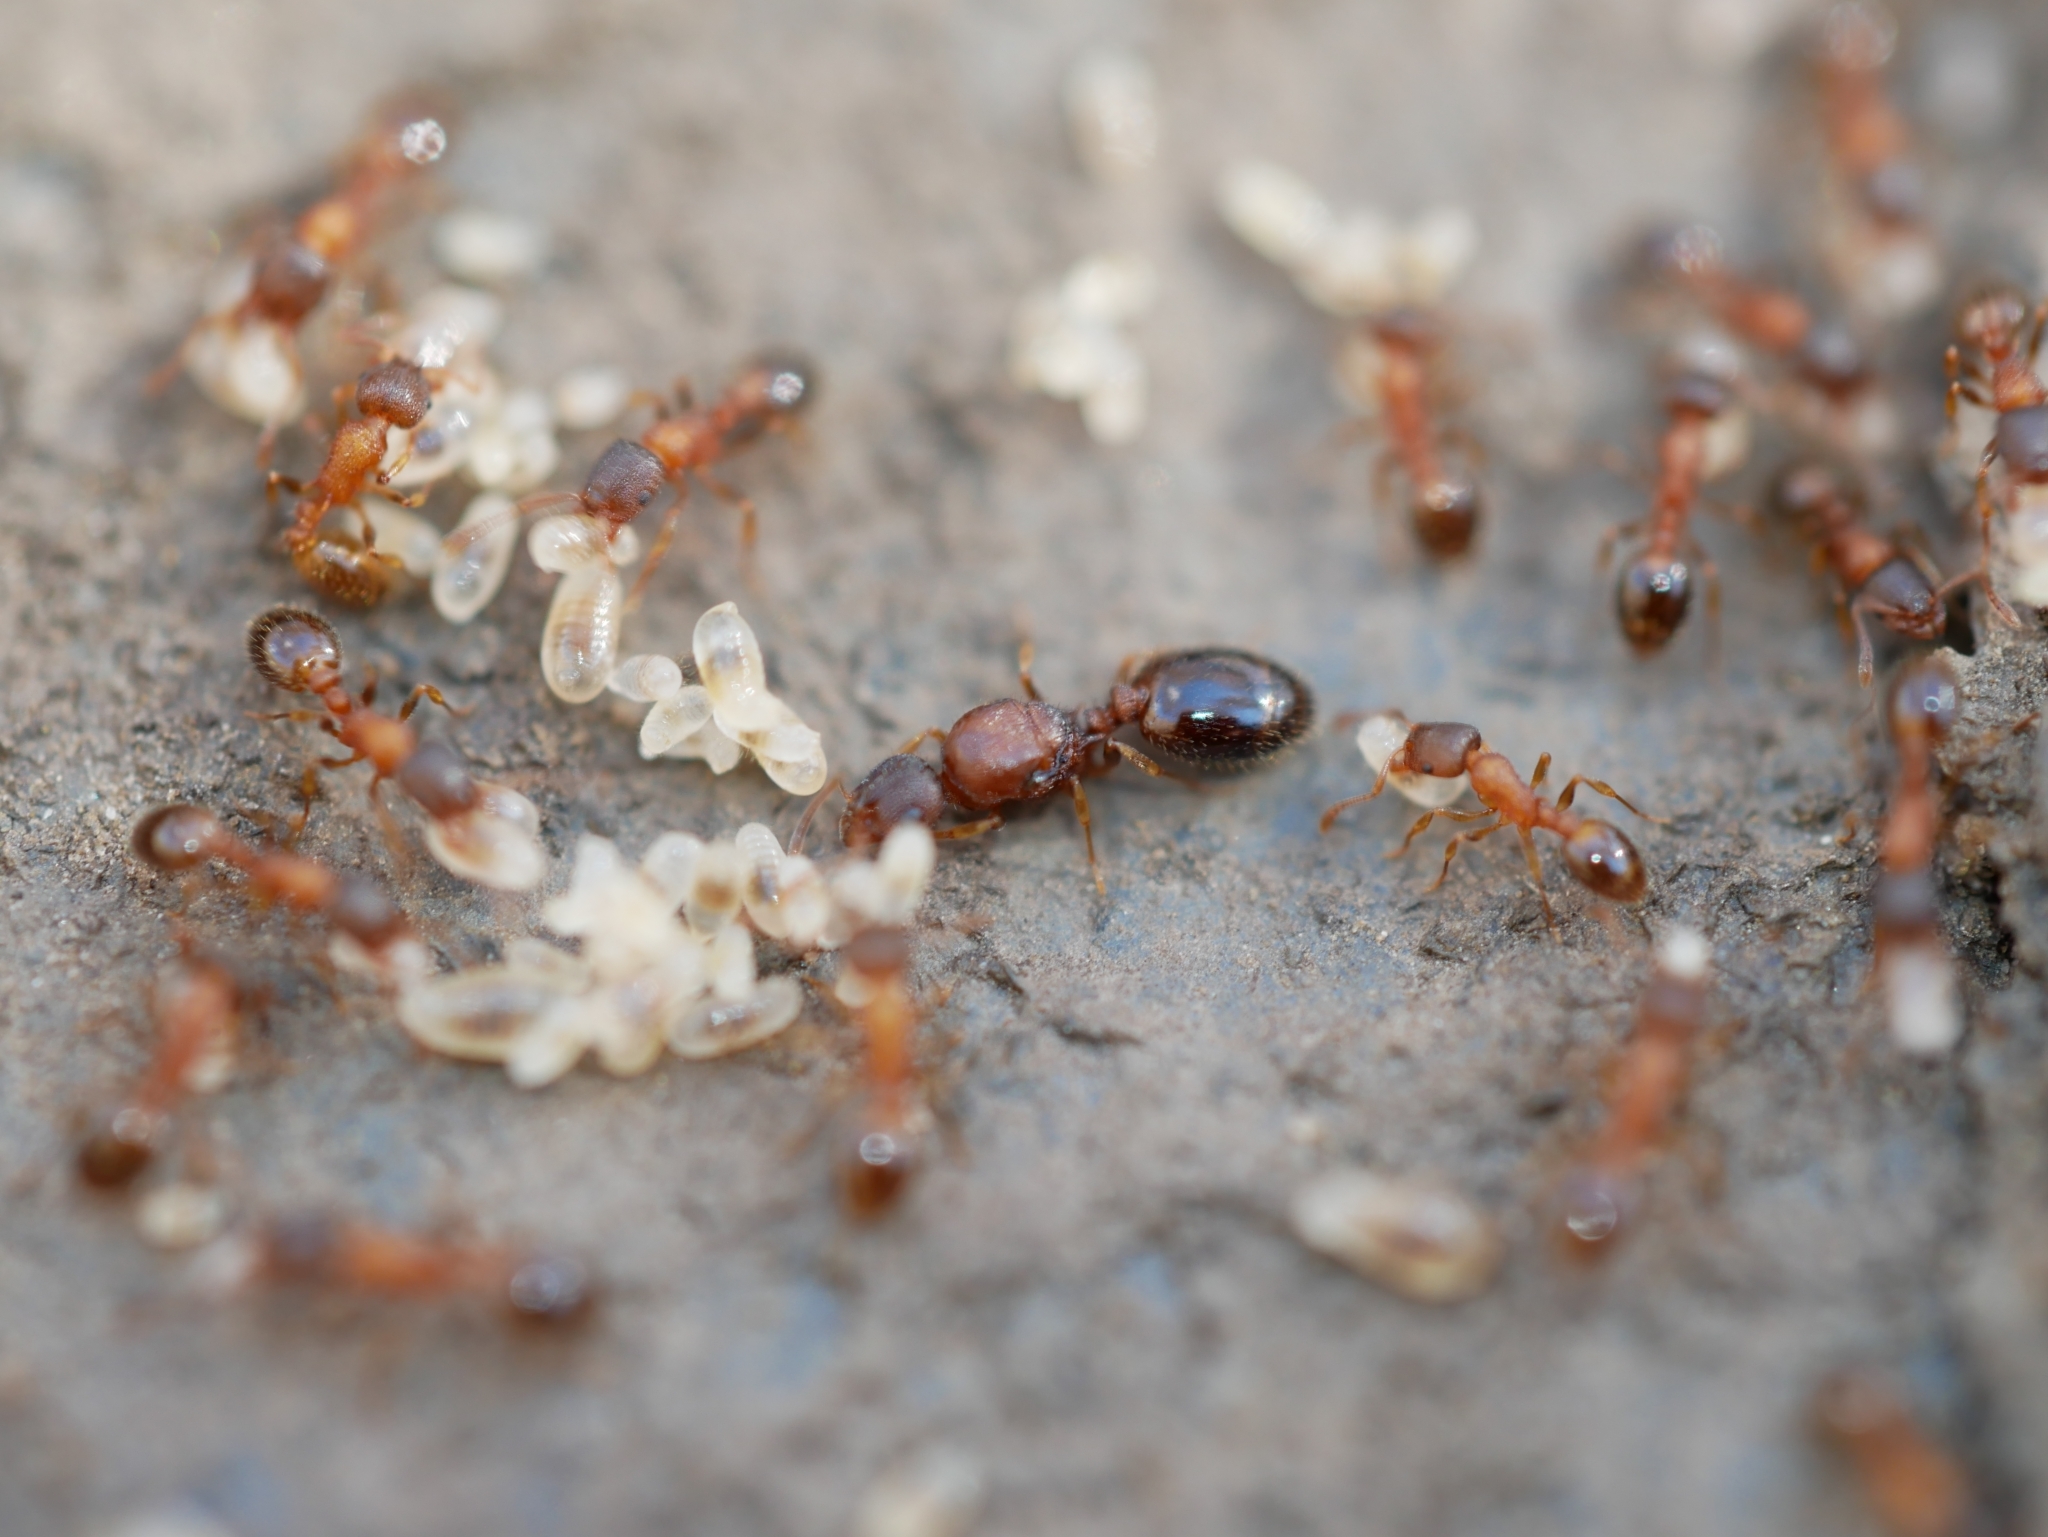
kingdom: Animalia
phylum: Arthropoda
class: Insecta
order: Hymenoptera
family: Formicidae
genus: Leptothorax
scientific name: Leptothorax rugatulus
